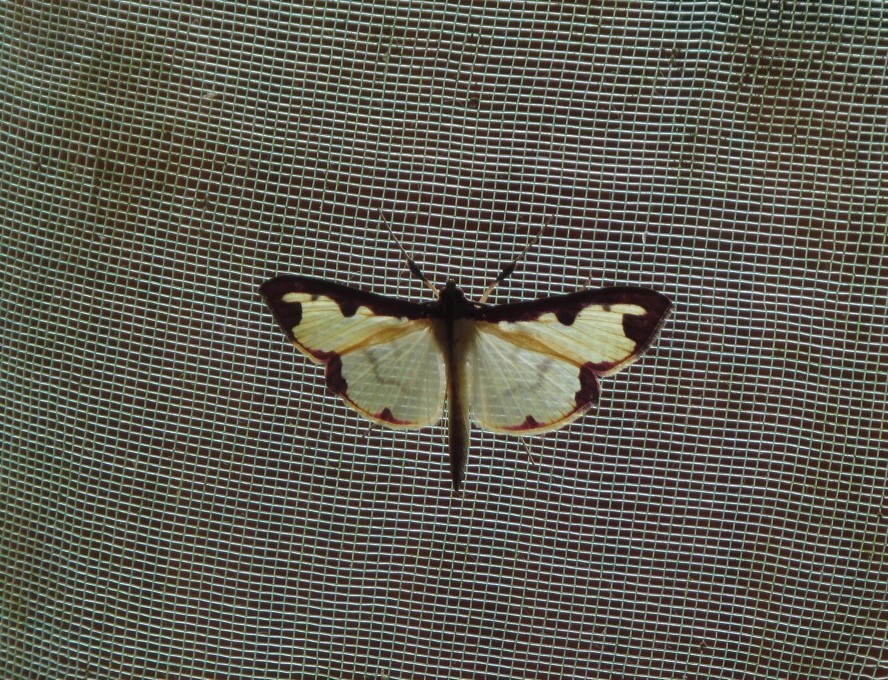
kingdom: Animalia
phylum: Arthropoda
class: Insecta
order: Lepidoptera
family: Crambidae
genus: Cadarena
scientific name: Cadarena pudoraria
